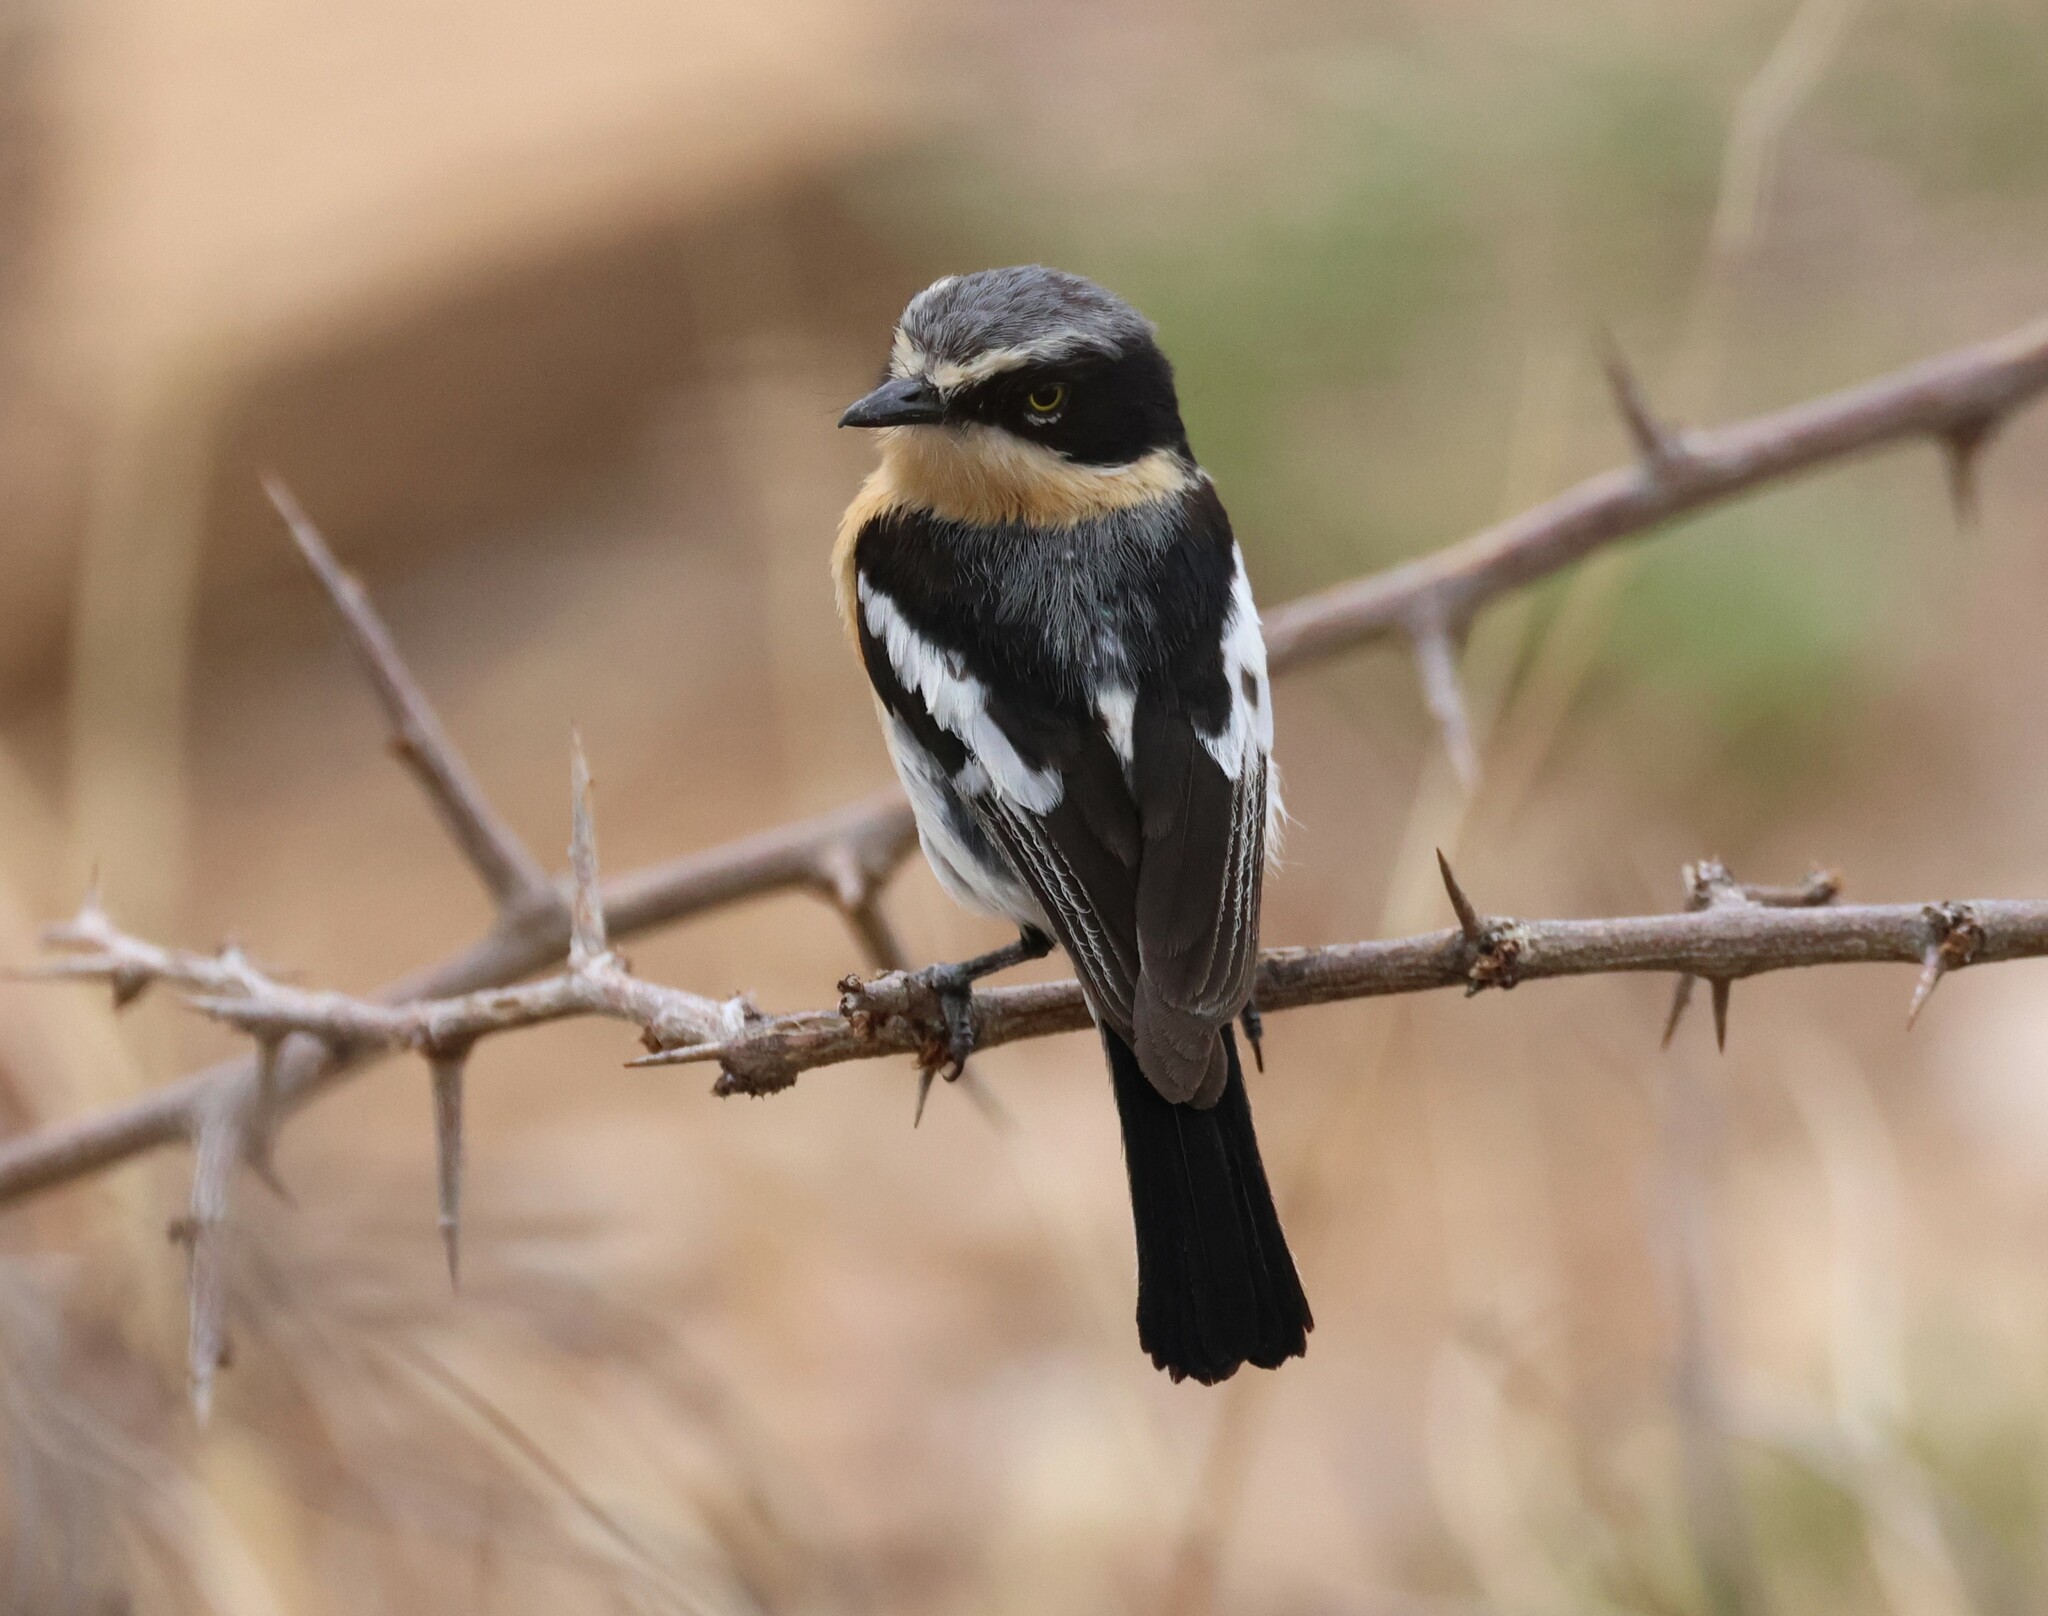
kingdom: Animalia
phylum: Chordata
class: Aves
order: Passeriformes
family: Platysteiridae
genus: Batis
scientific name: Batis pririt
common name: Pririt batis
